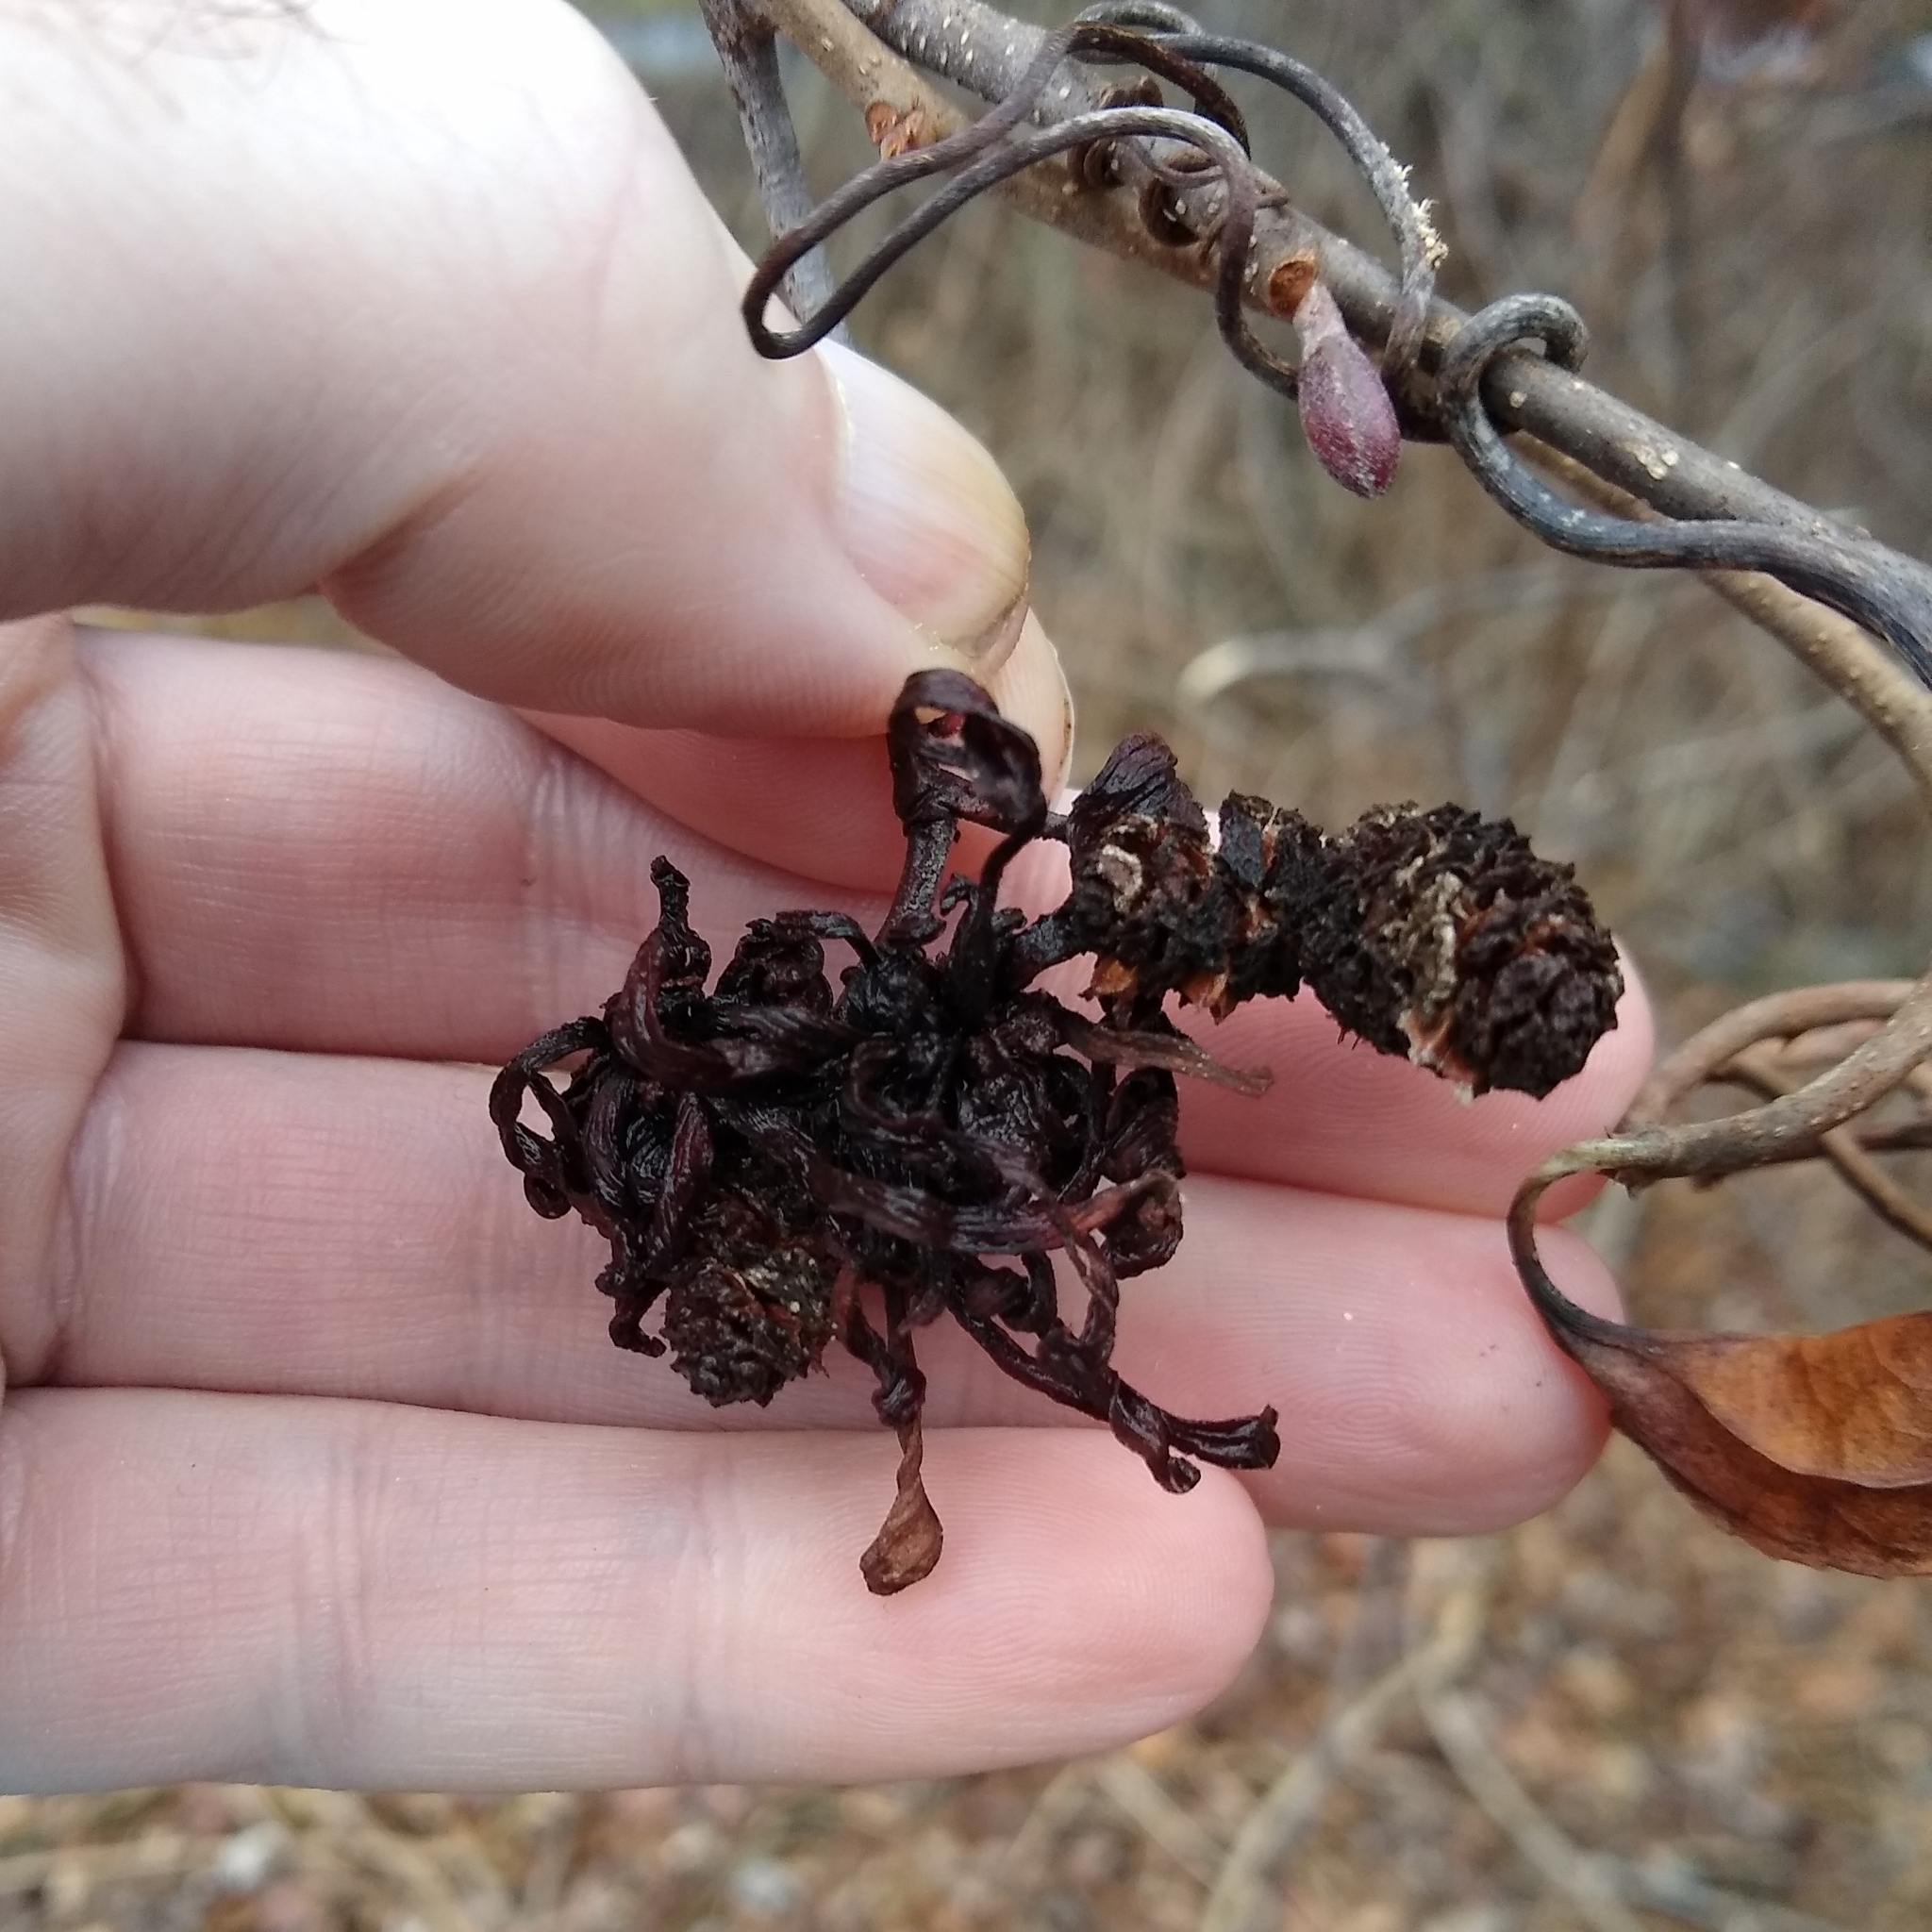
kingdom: Fungi
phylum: Ascomycota
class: Taphrinomycetes
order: Taphrinales
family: Taphrinaceae
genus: Taphrina
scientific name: Taphrina robinsoniana
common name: Eastern american alder tongue gall fungus
